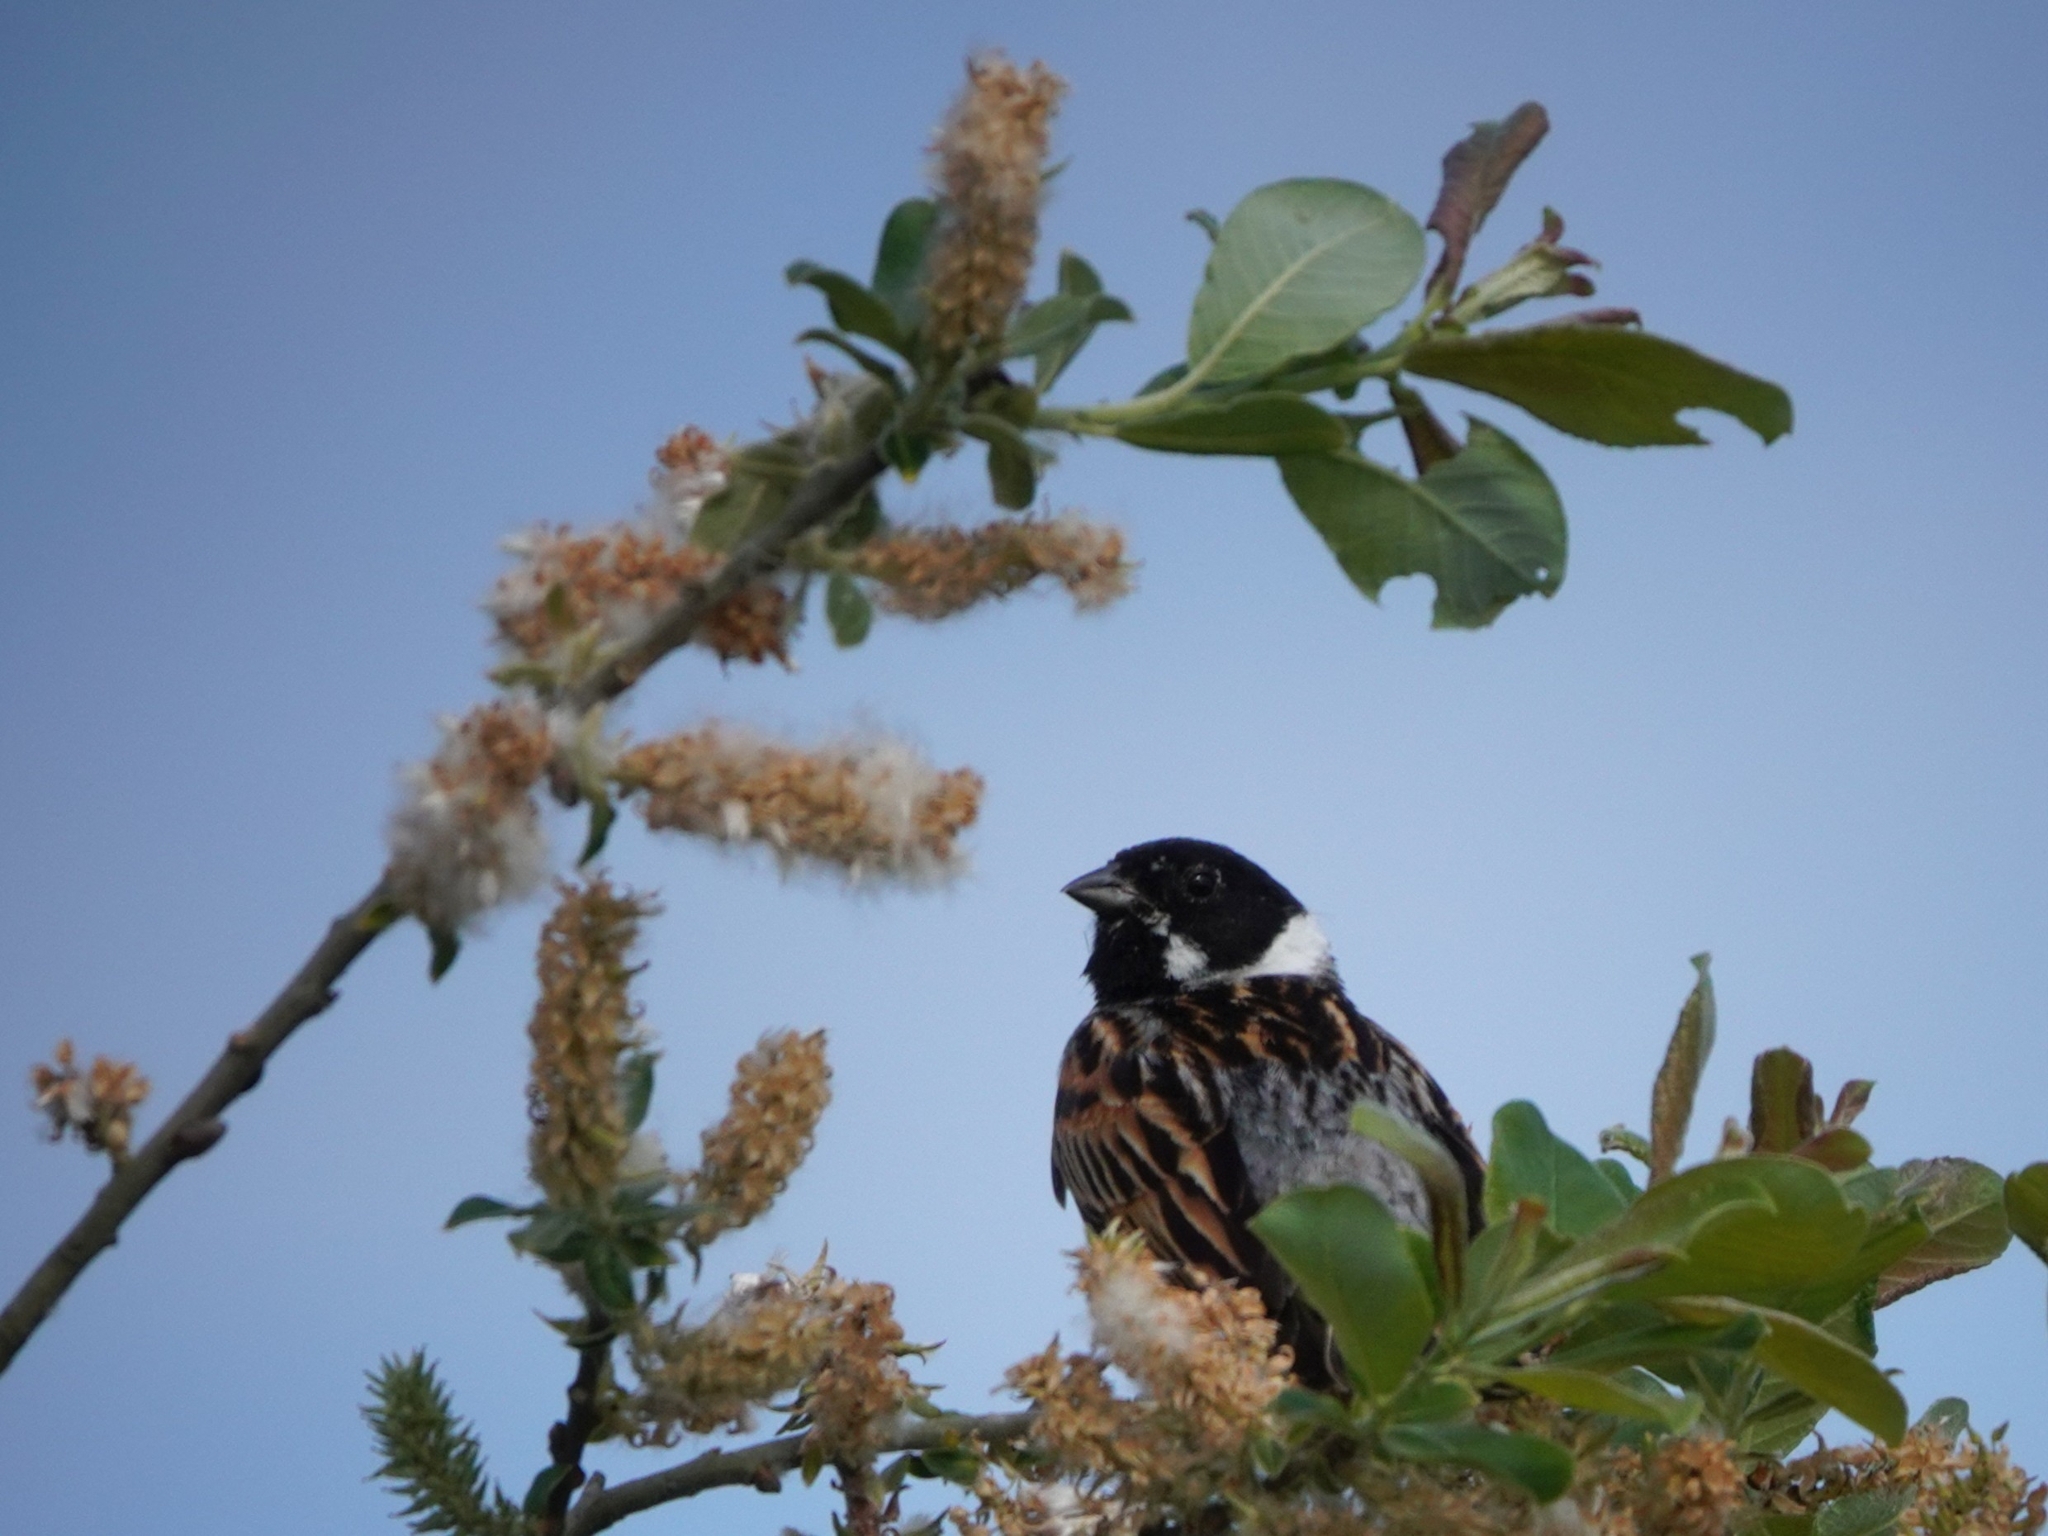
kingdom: Animalia
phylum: Chordata
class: Aves
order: Passeriformes
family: Emberizidae
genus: Emberiza
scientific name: Emberiza schoeniclus
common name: Reed bunting
